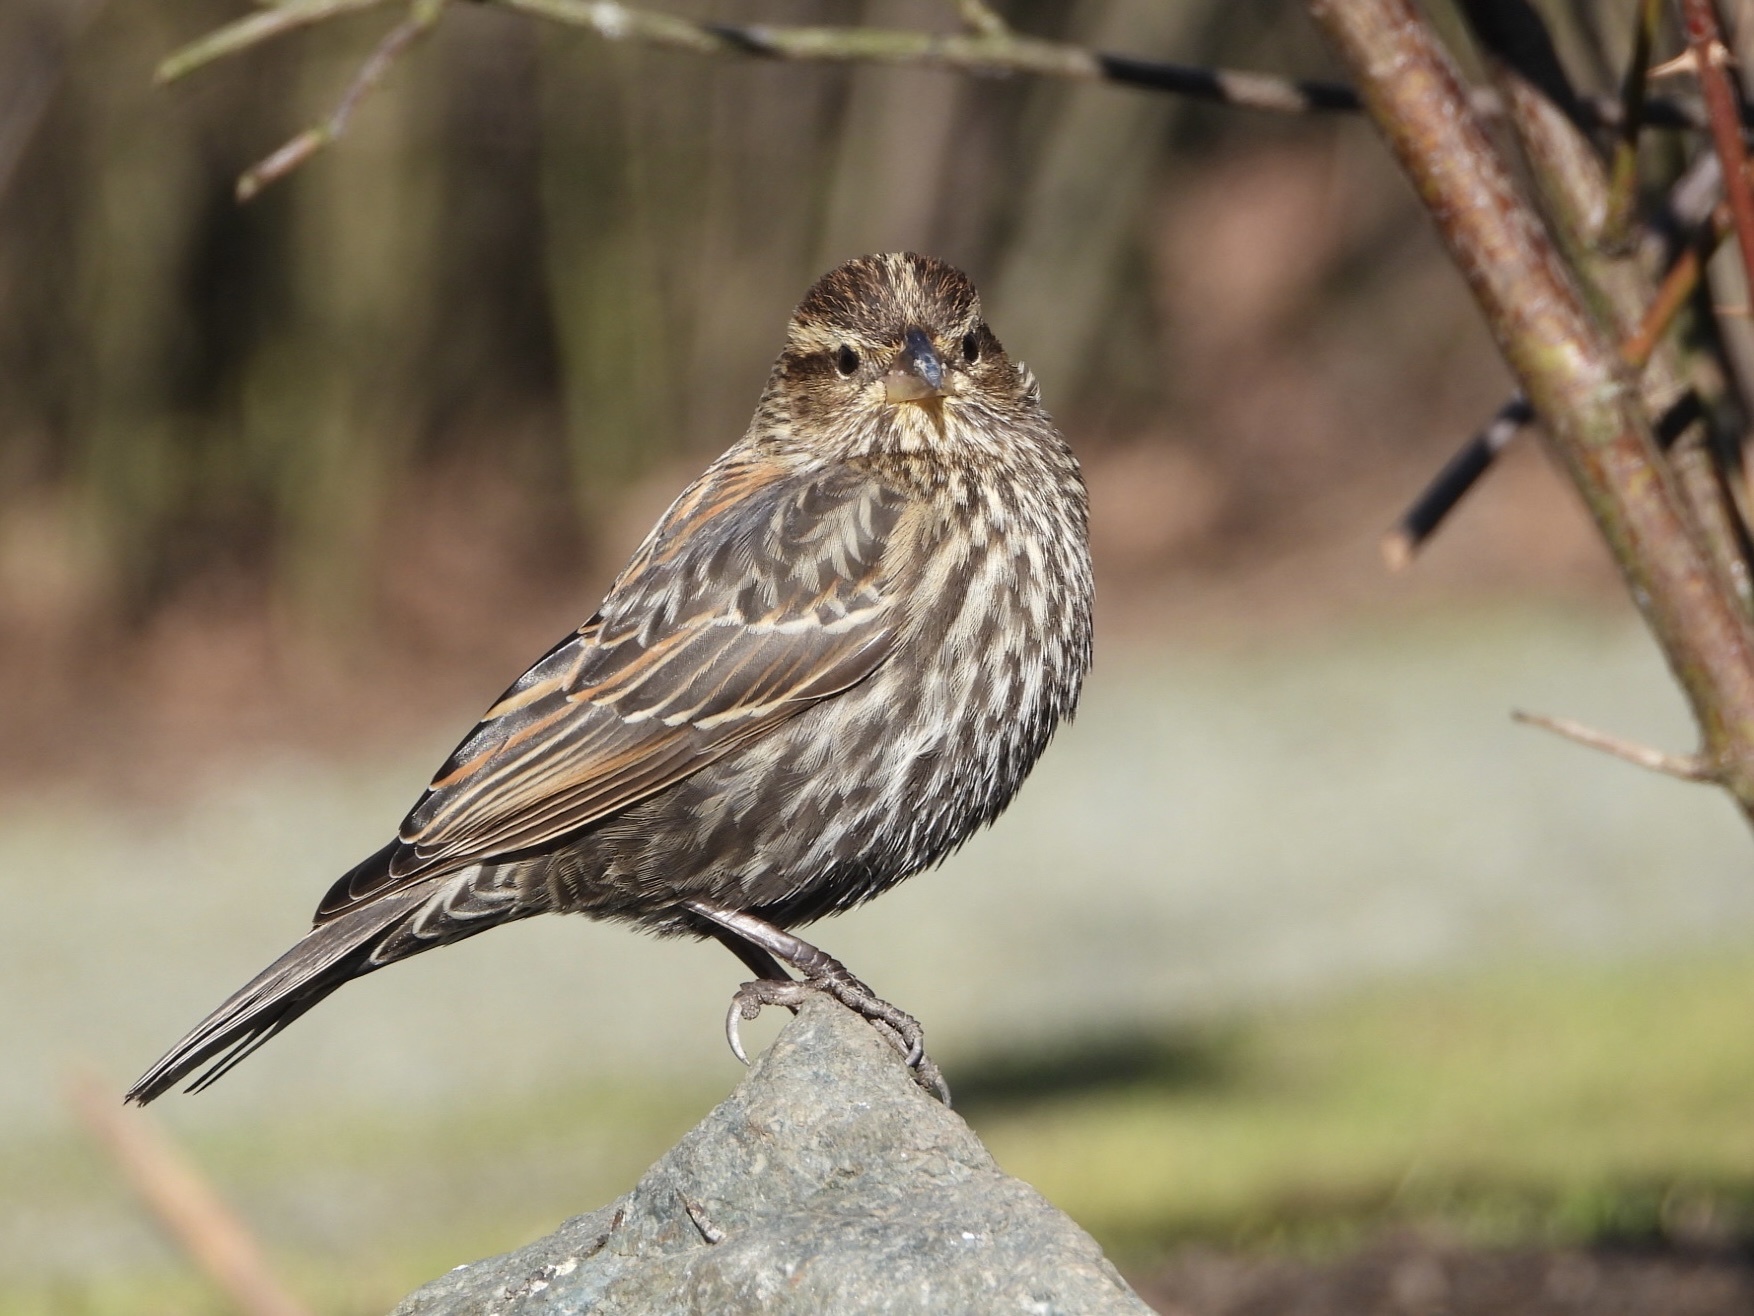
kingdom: Animalia
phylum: Chordata
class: Aves
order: Passeriformes
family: Icteridae
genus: Agelaius
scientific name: Agelaius phoeniceus
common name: Red-winged blackbird
